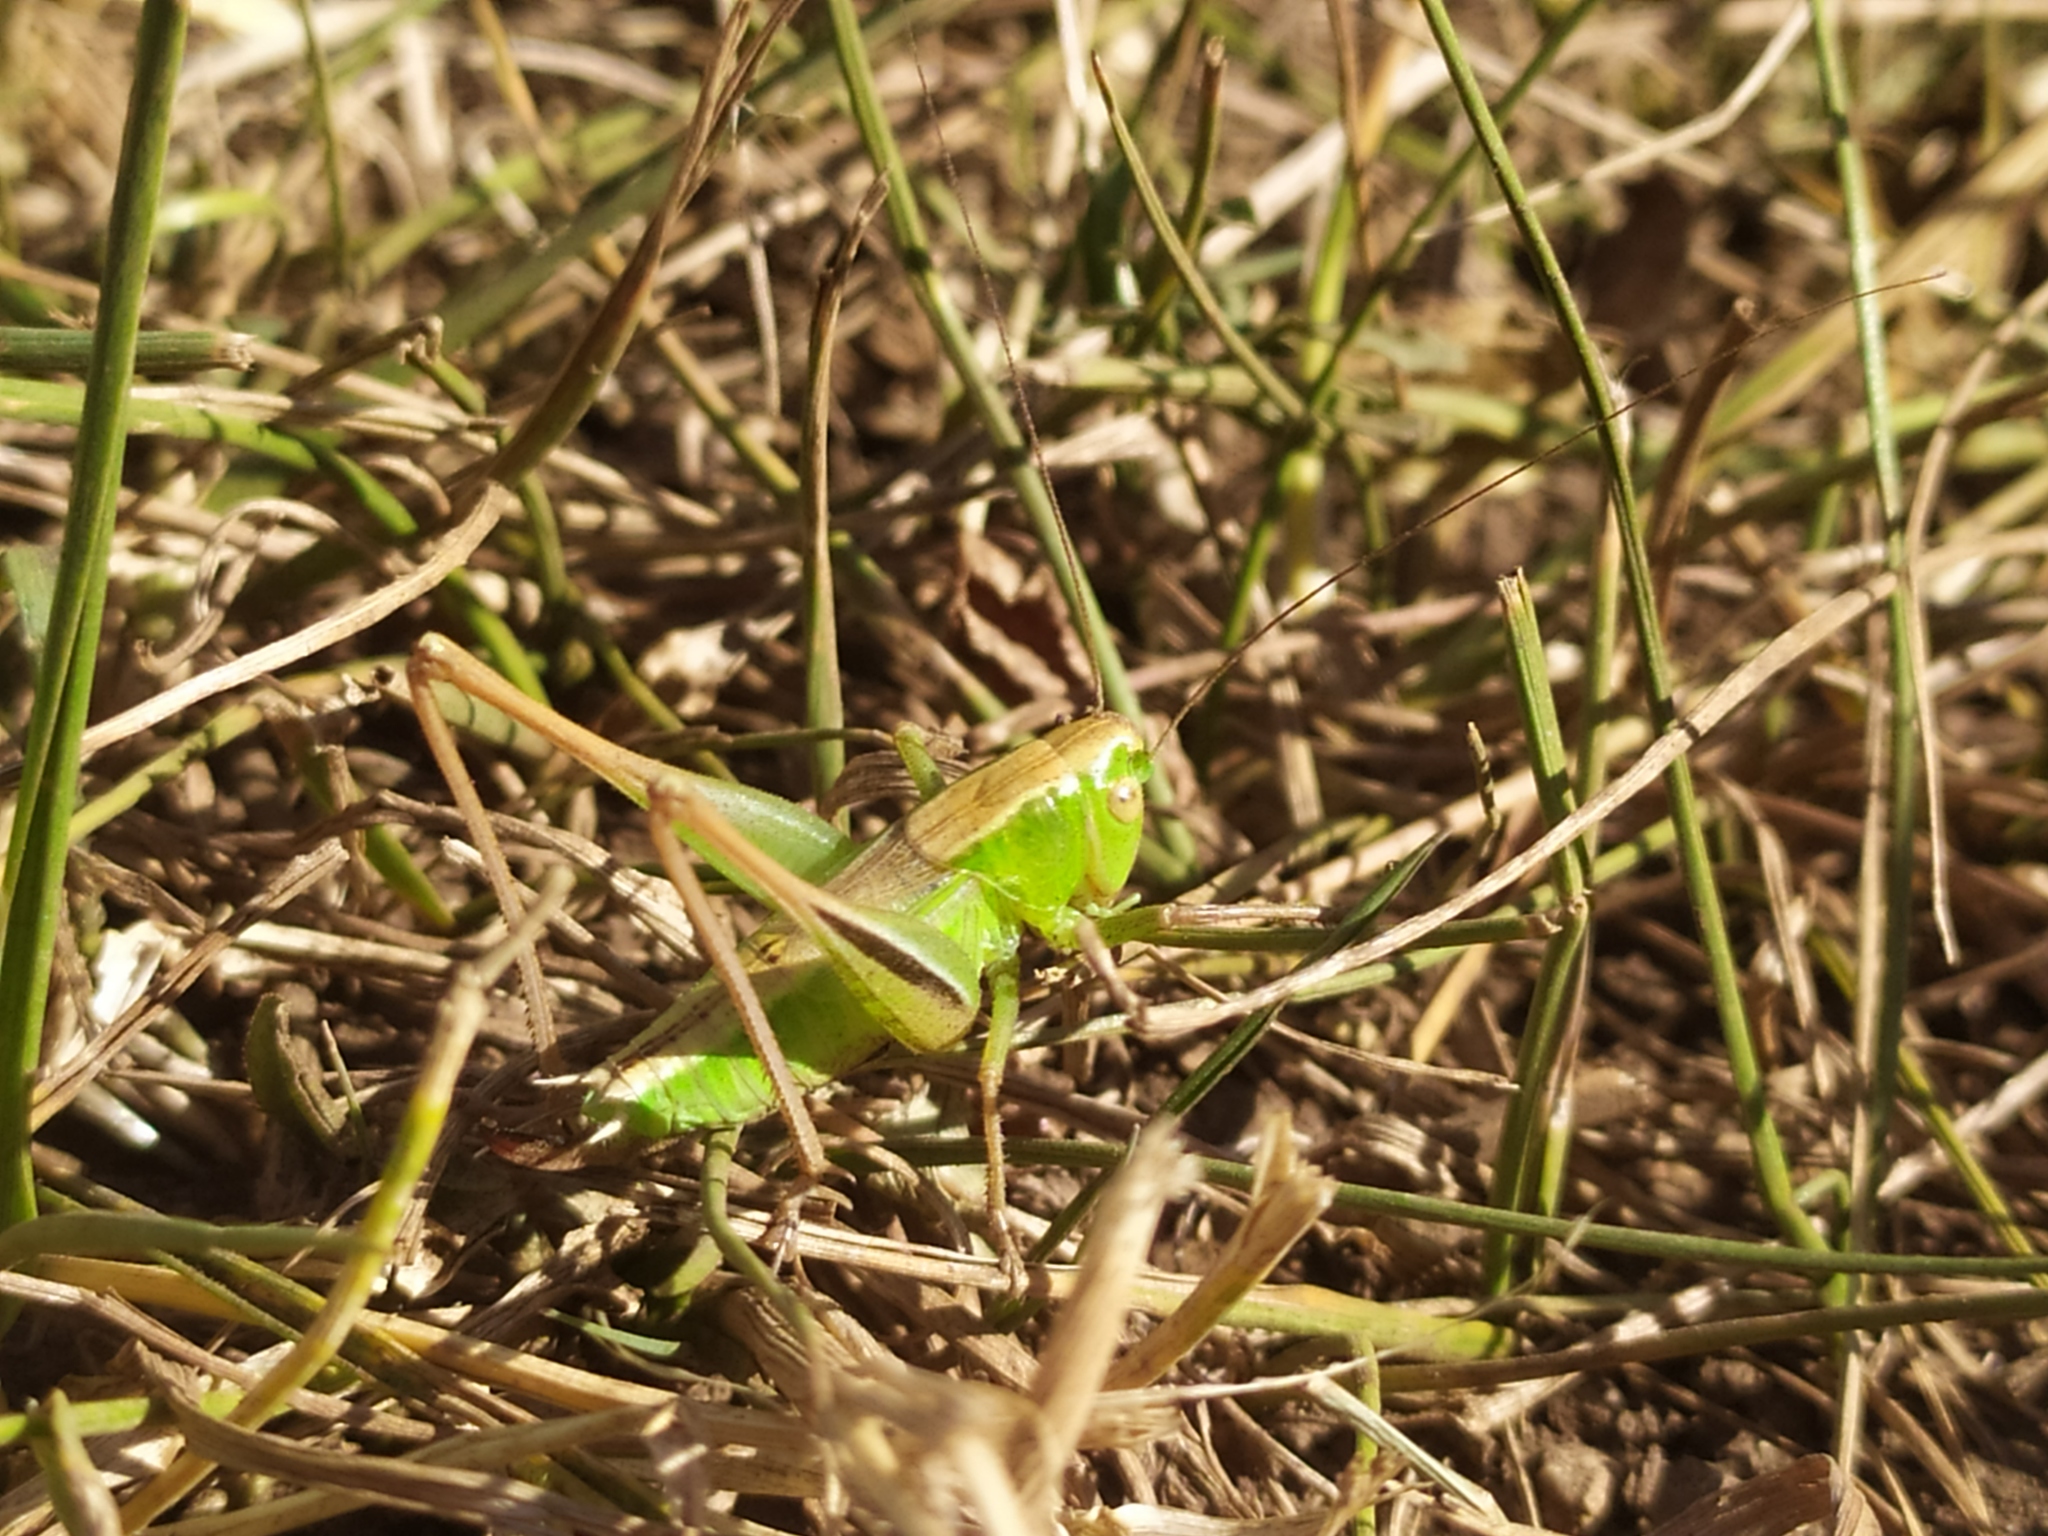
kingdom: Animalia
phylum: Arthropoda
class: Insecta
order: Orthoptera
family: Tettigoniidae
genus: Bicolorana
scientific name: Bicolorana bicolor
